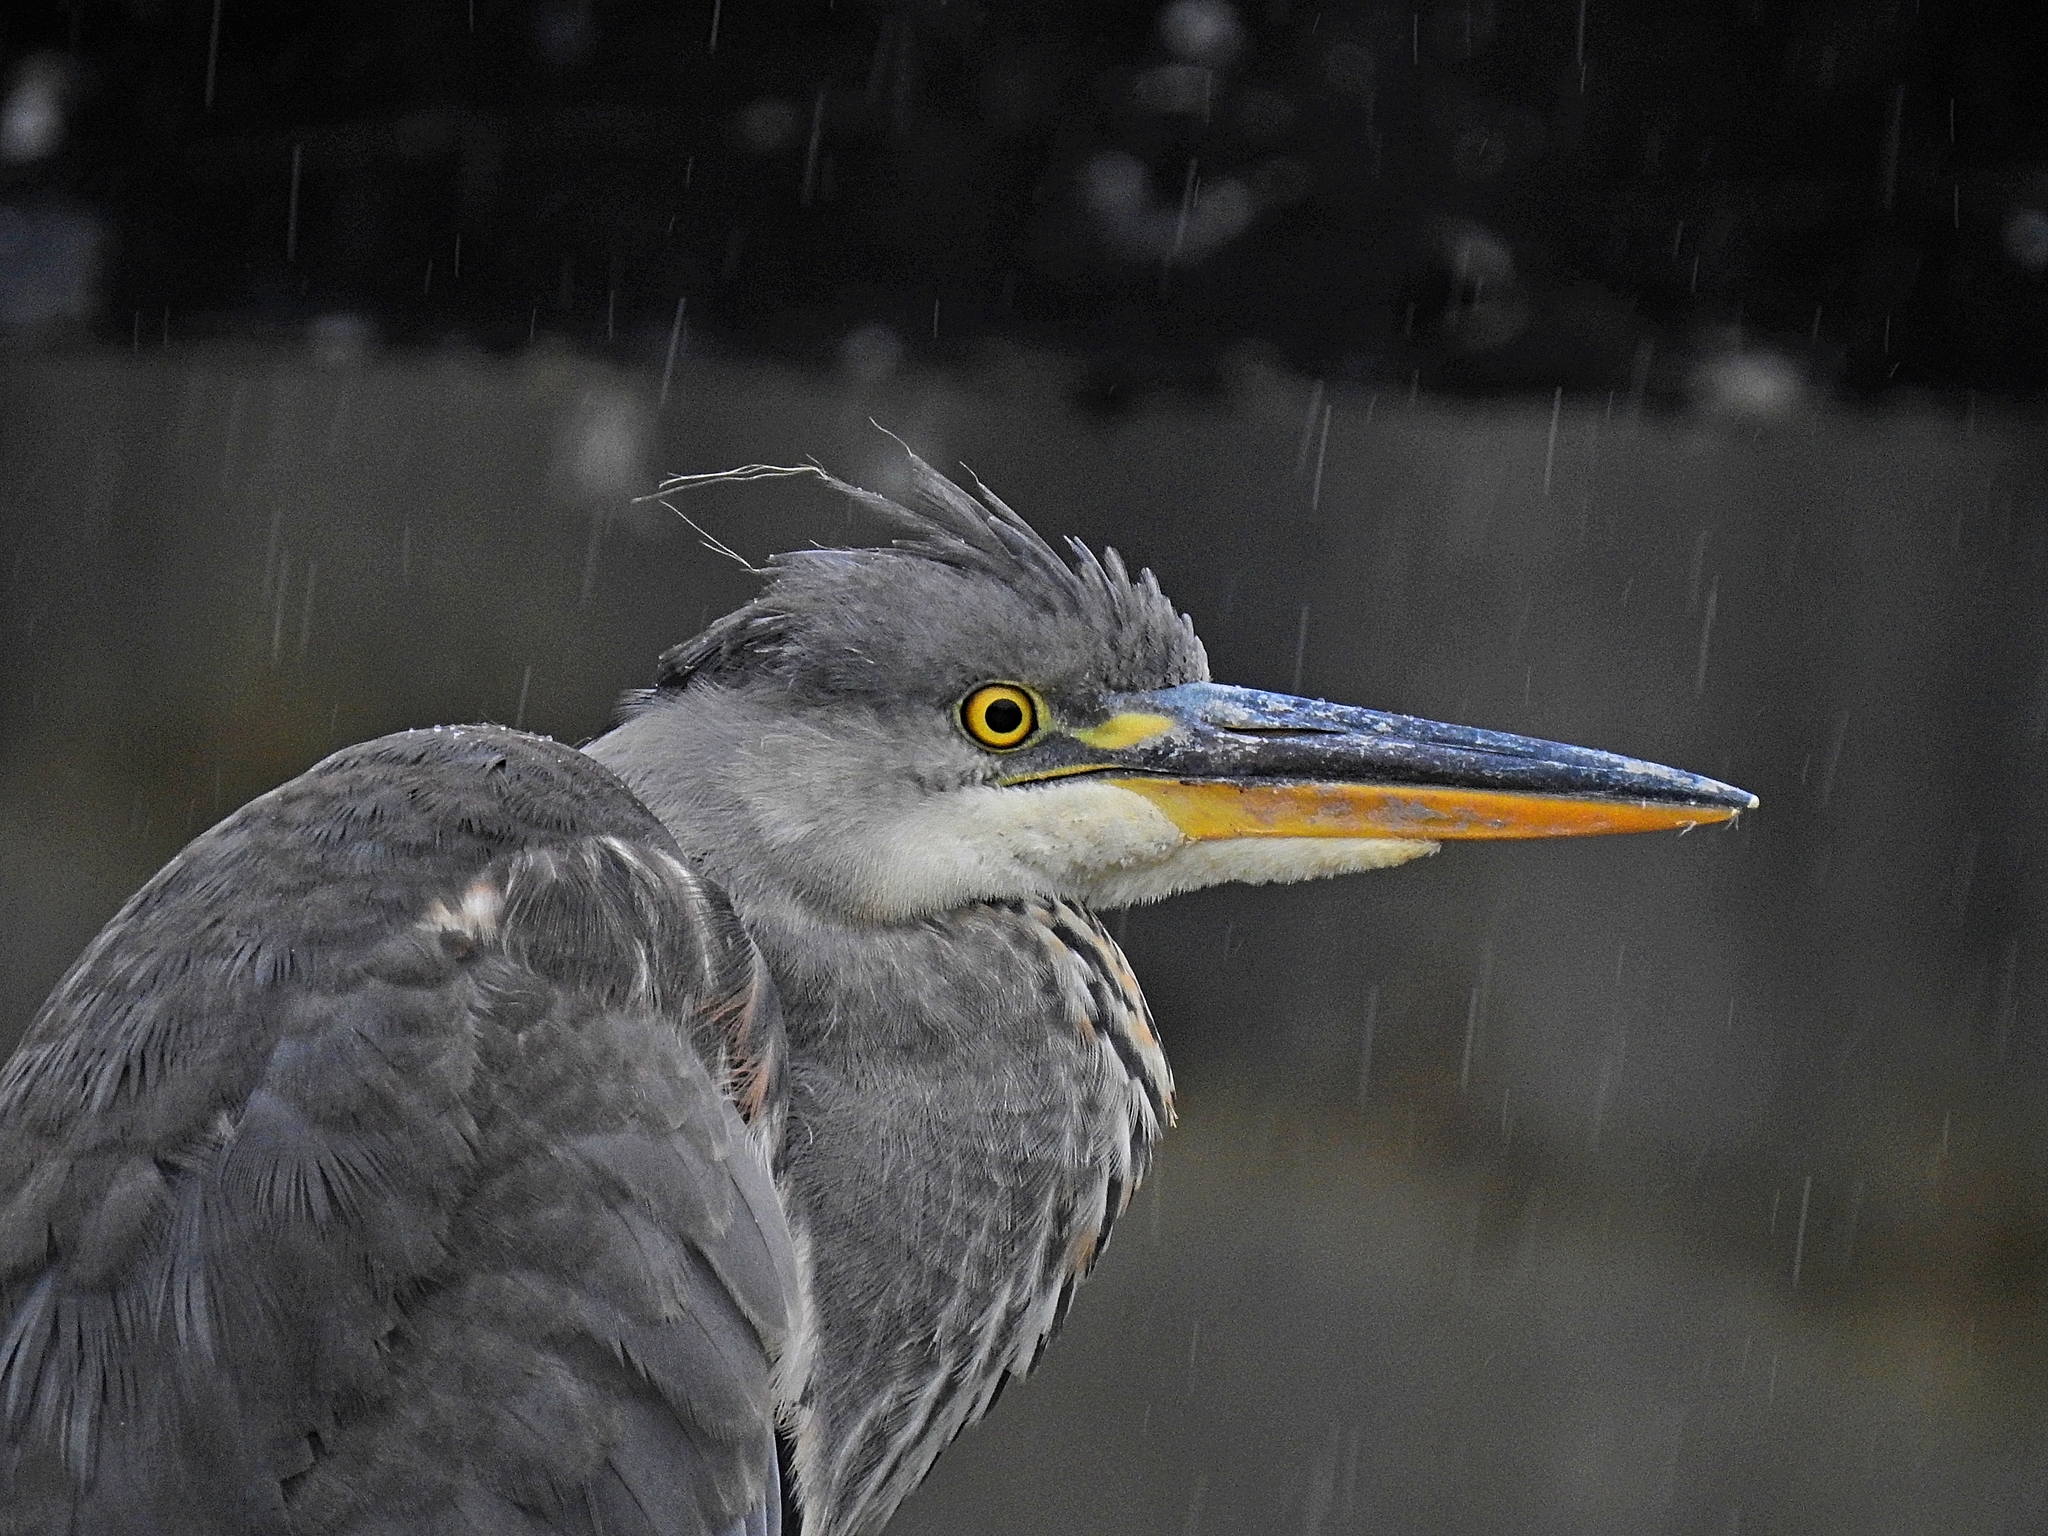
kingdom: Animalia
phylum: Chordata
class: Aves
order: Pelecaniformes
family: Ardeidae
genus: Ardea
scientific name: Ardea cinerea
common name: Grey heron
